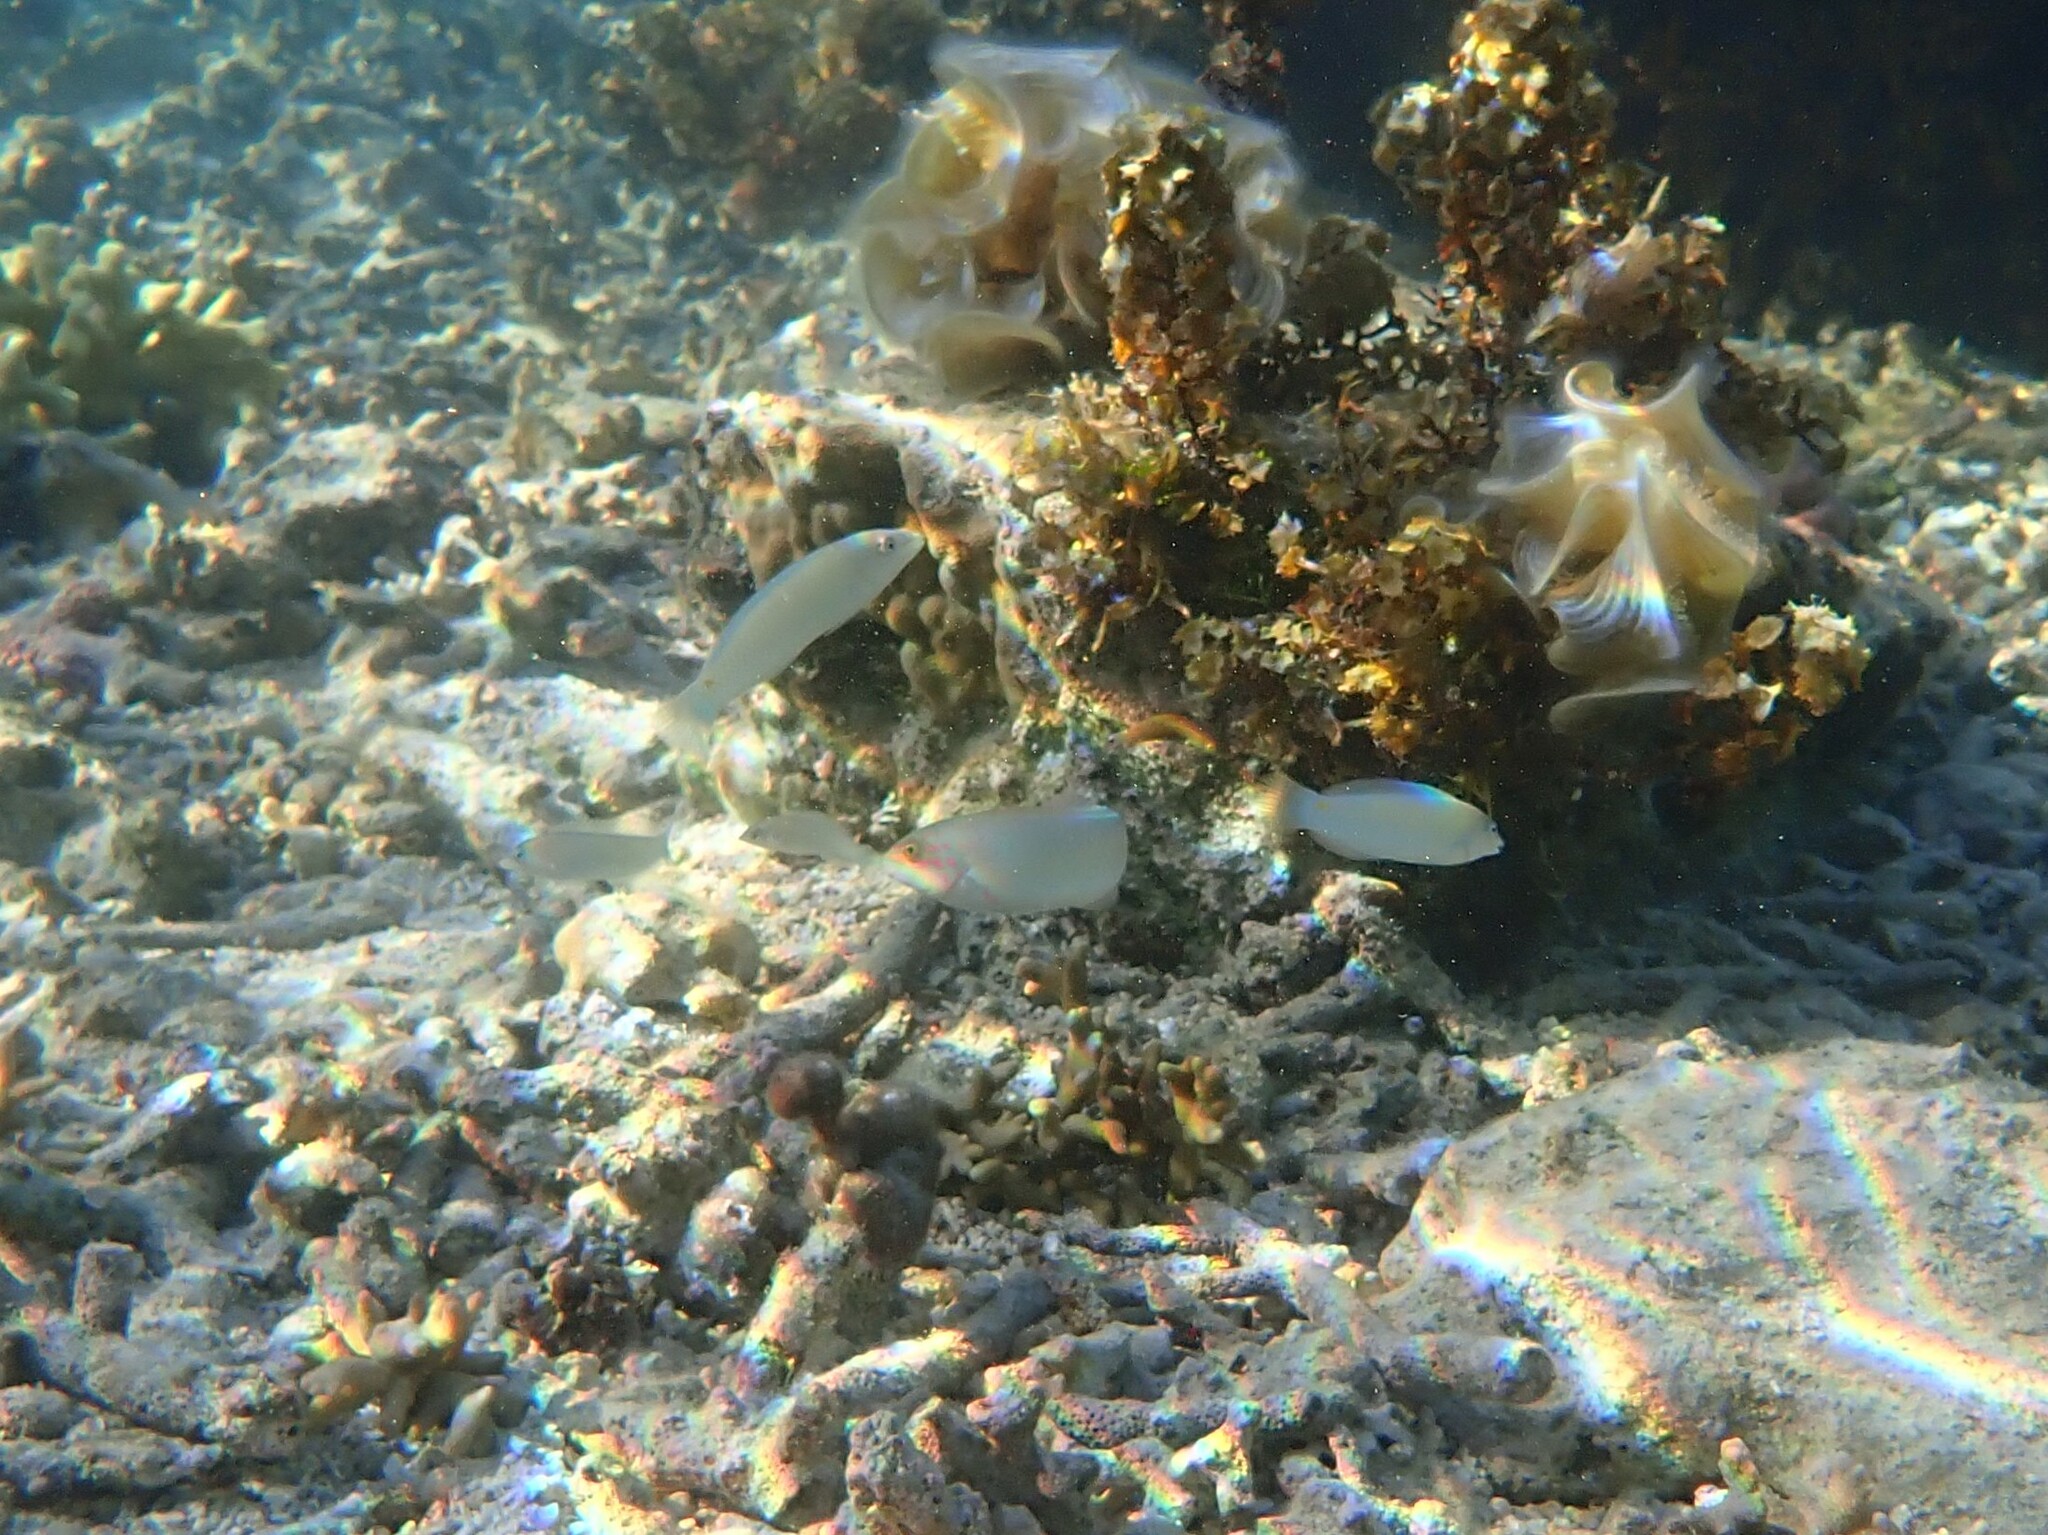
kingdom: Animalia
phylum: Chordata
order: Perciformes
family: Labridae
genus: Halichoeres
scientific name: Halichoeres trimaculatus
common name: Three-spot wrasse
